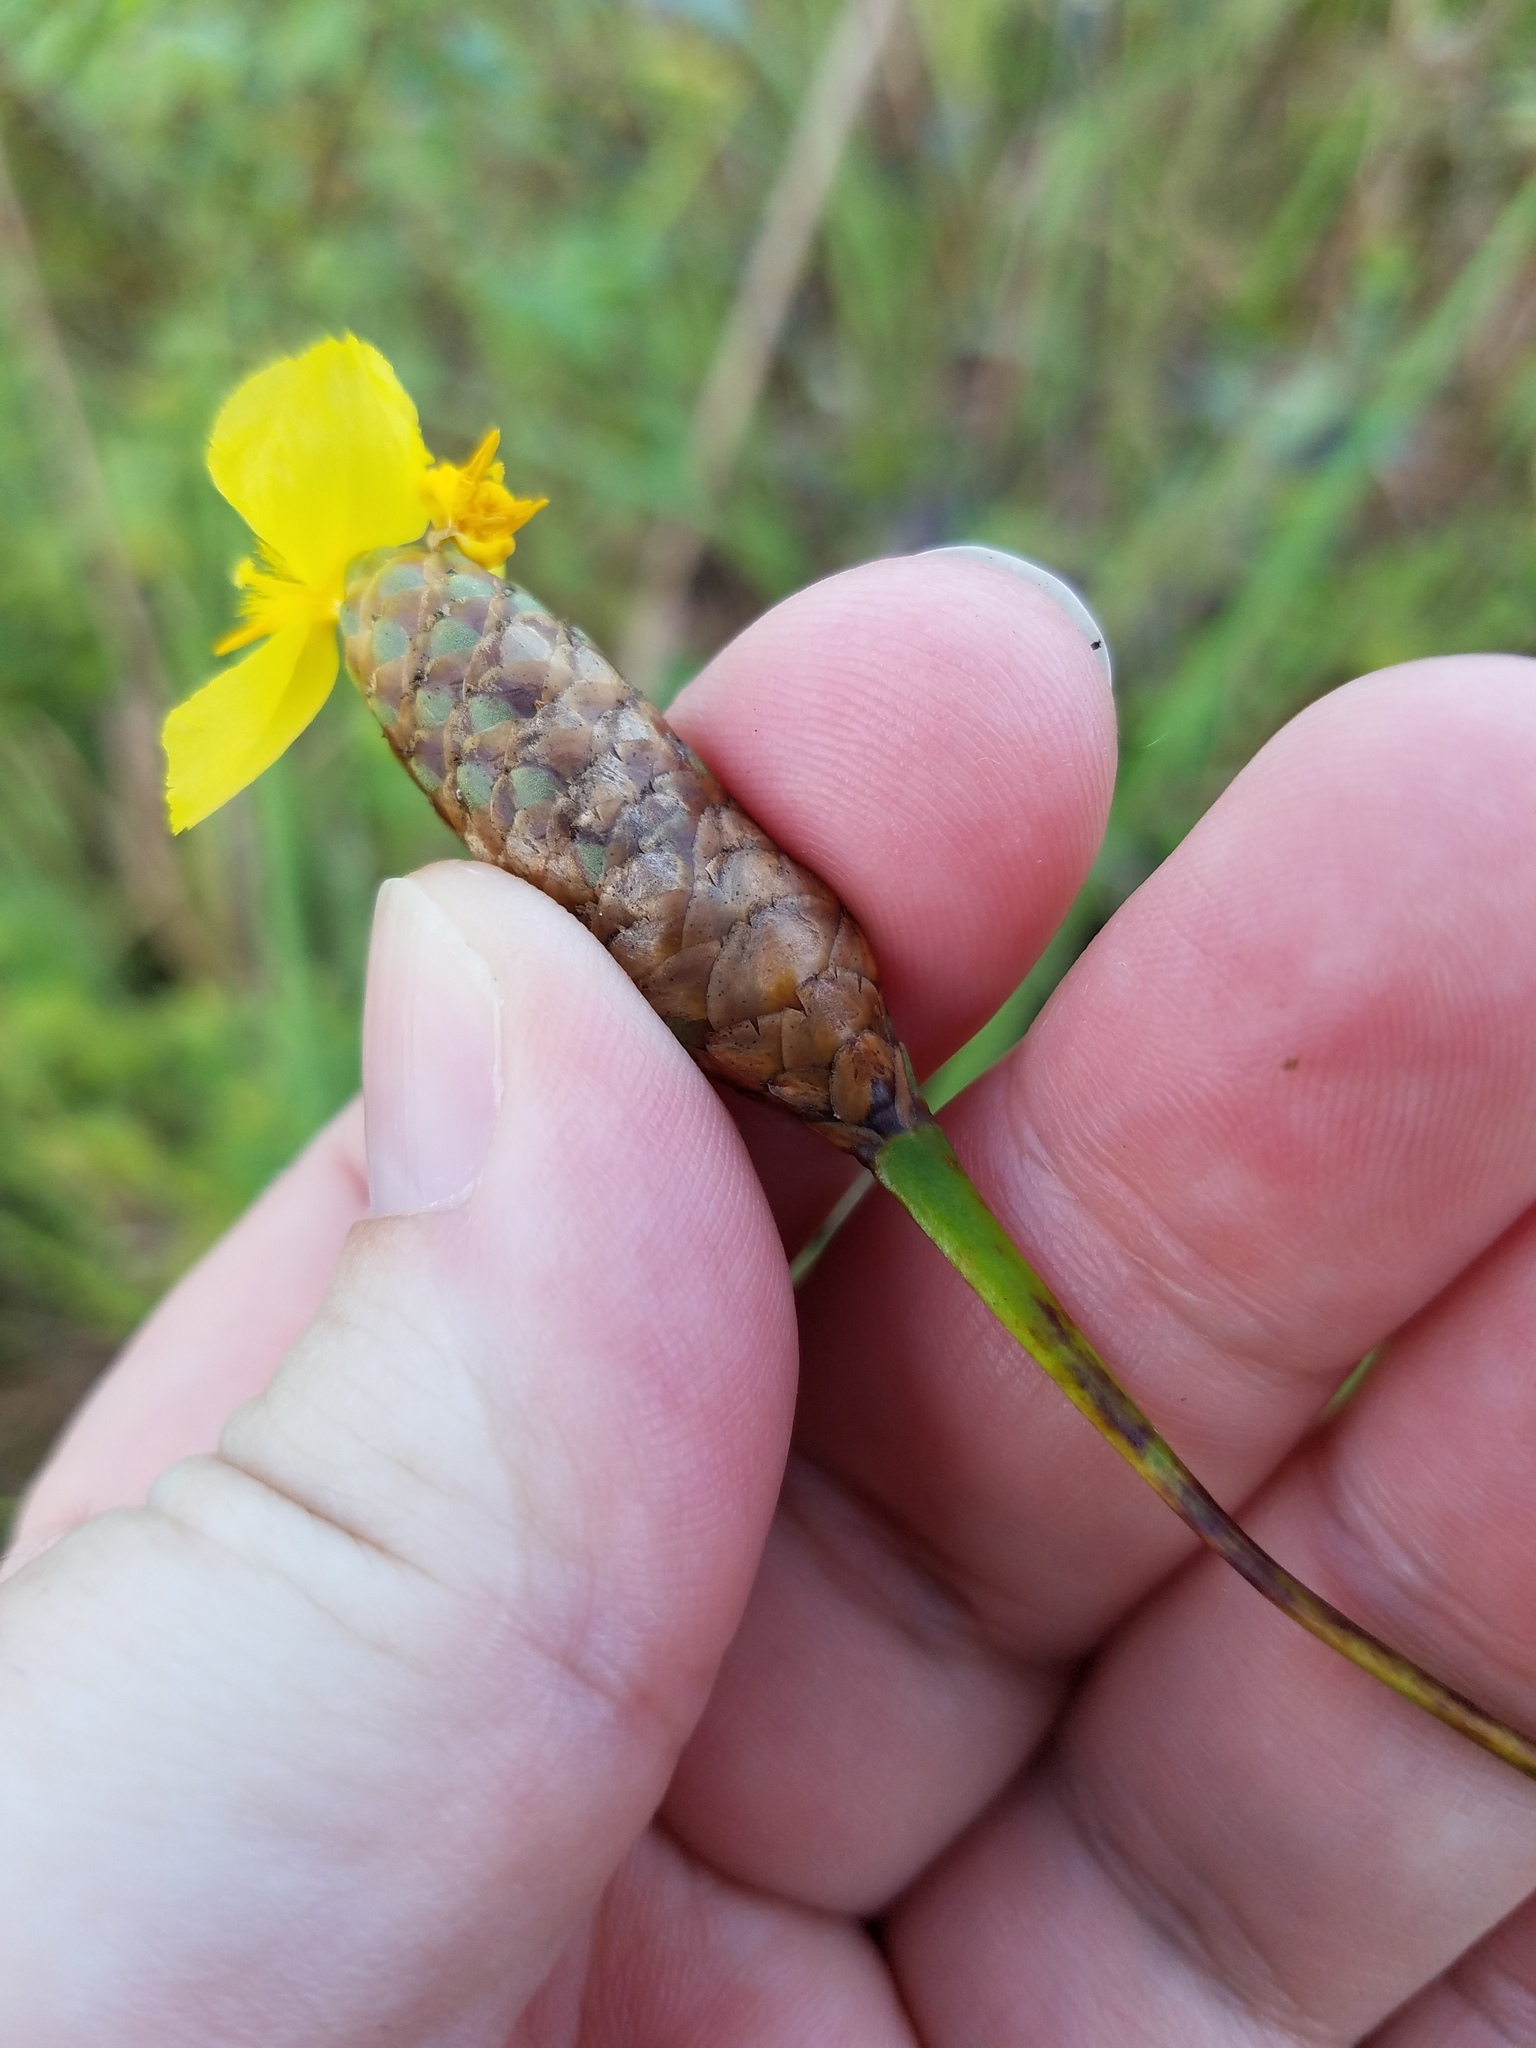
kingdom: Plantae
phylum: Tracheophyta
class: Liliopsida
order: Poales
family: Xyridaceae
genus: Xyris
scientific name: Xyris ambigua
